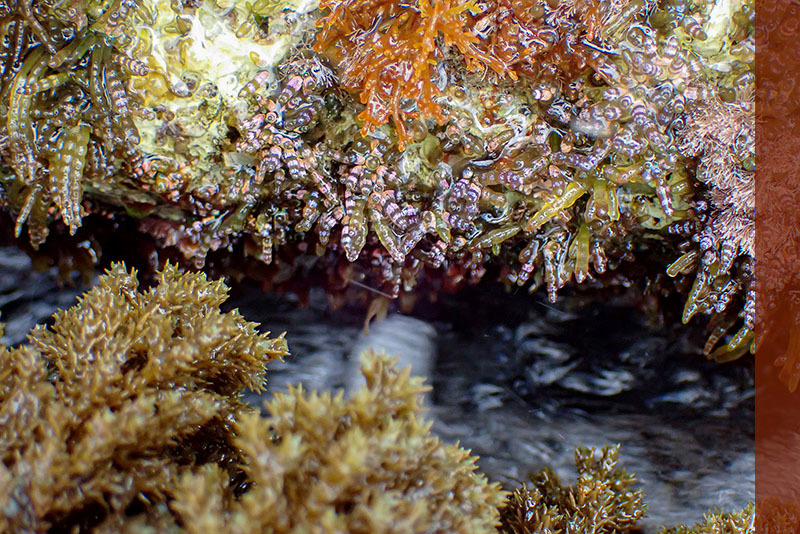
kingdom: Plantae
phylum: Rhodophyta
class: Florideophyceae
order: Rhodymeniales
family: Champiaceae
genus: Gastroclonium
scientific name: Gastroclonium ovatum
